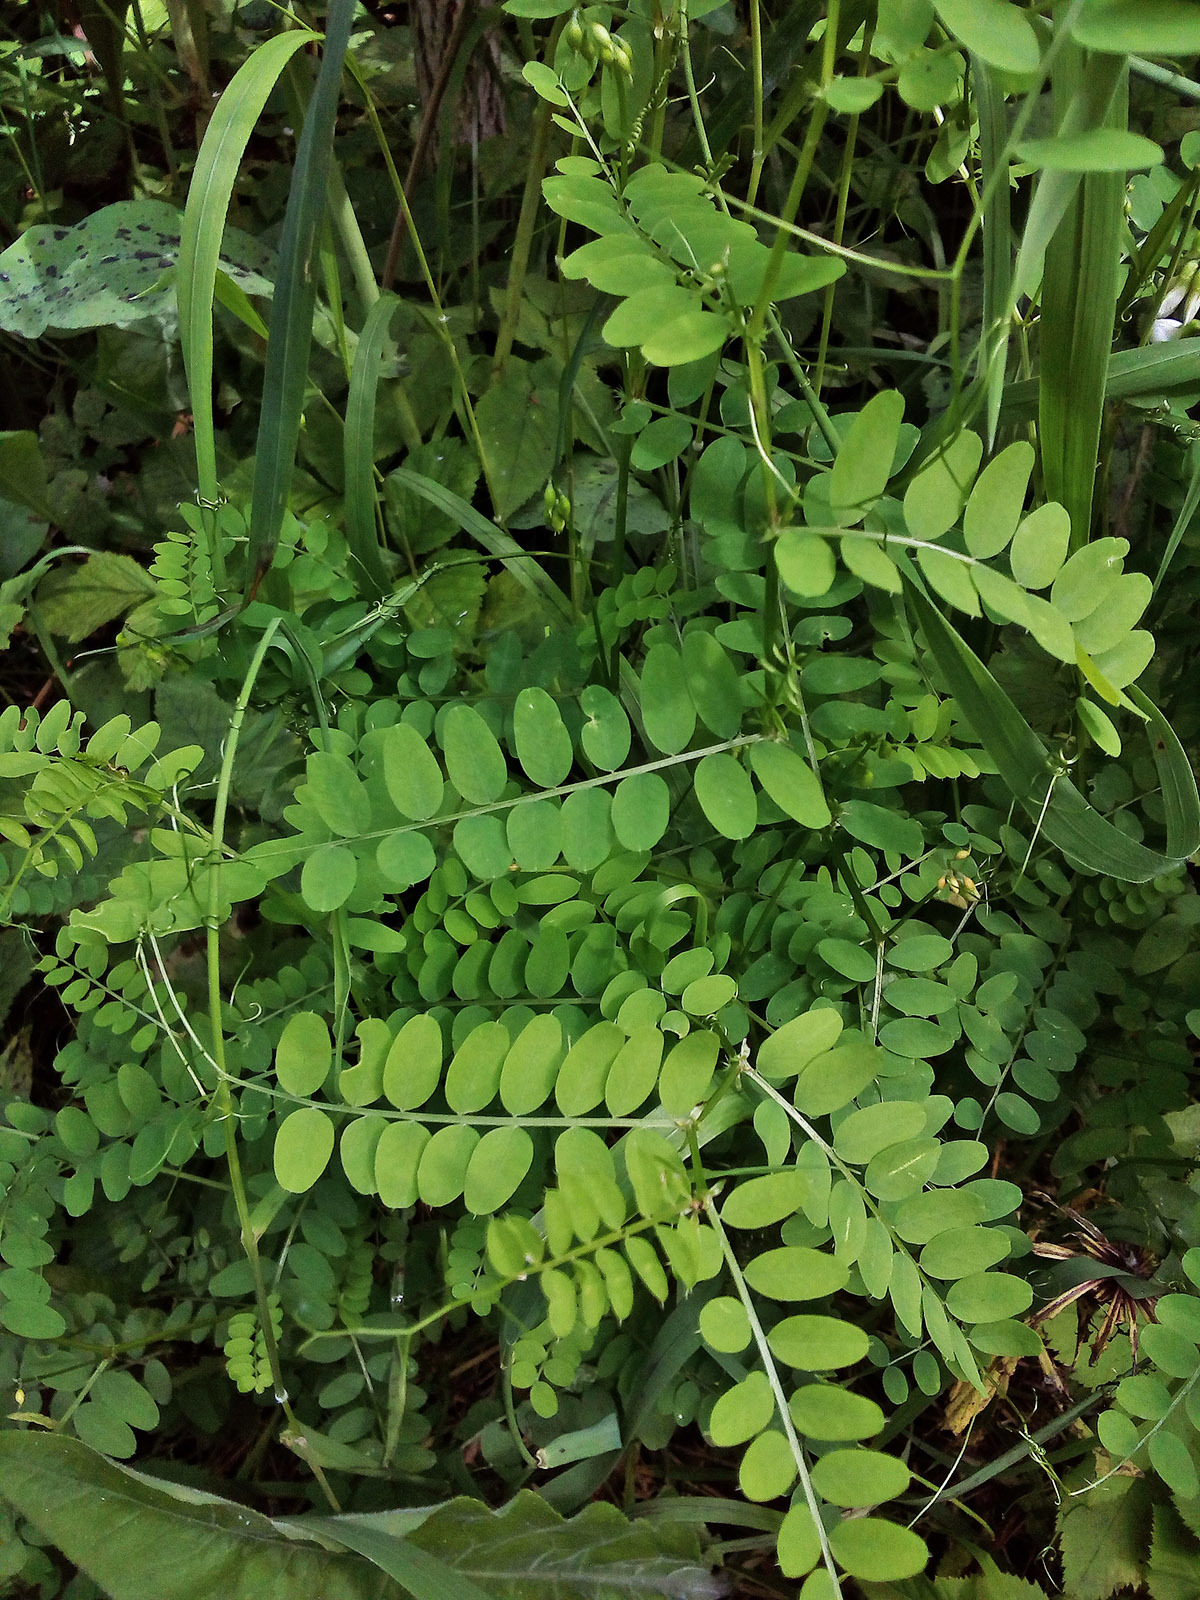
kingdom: Plantae
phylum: Tracheophyta
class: Magnoliopsida
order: Fabales
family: Fabaceae
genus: Vicia
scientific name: Vicia sylvatica
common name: Wood vetch
